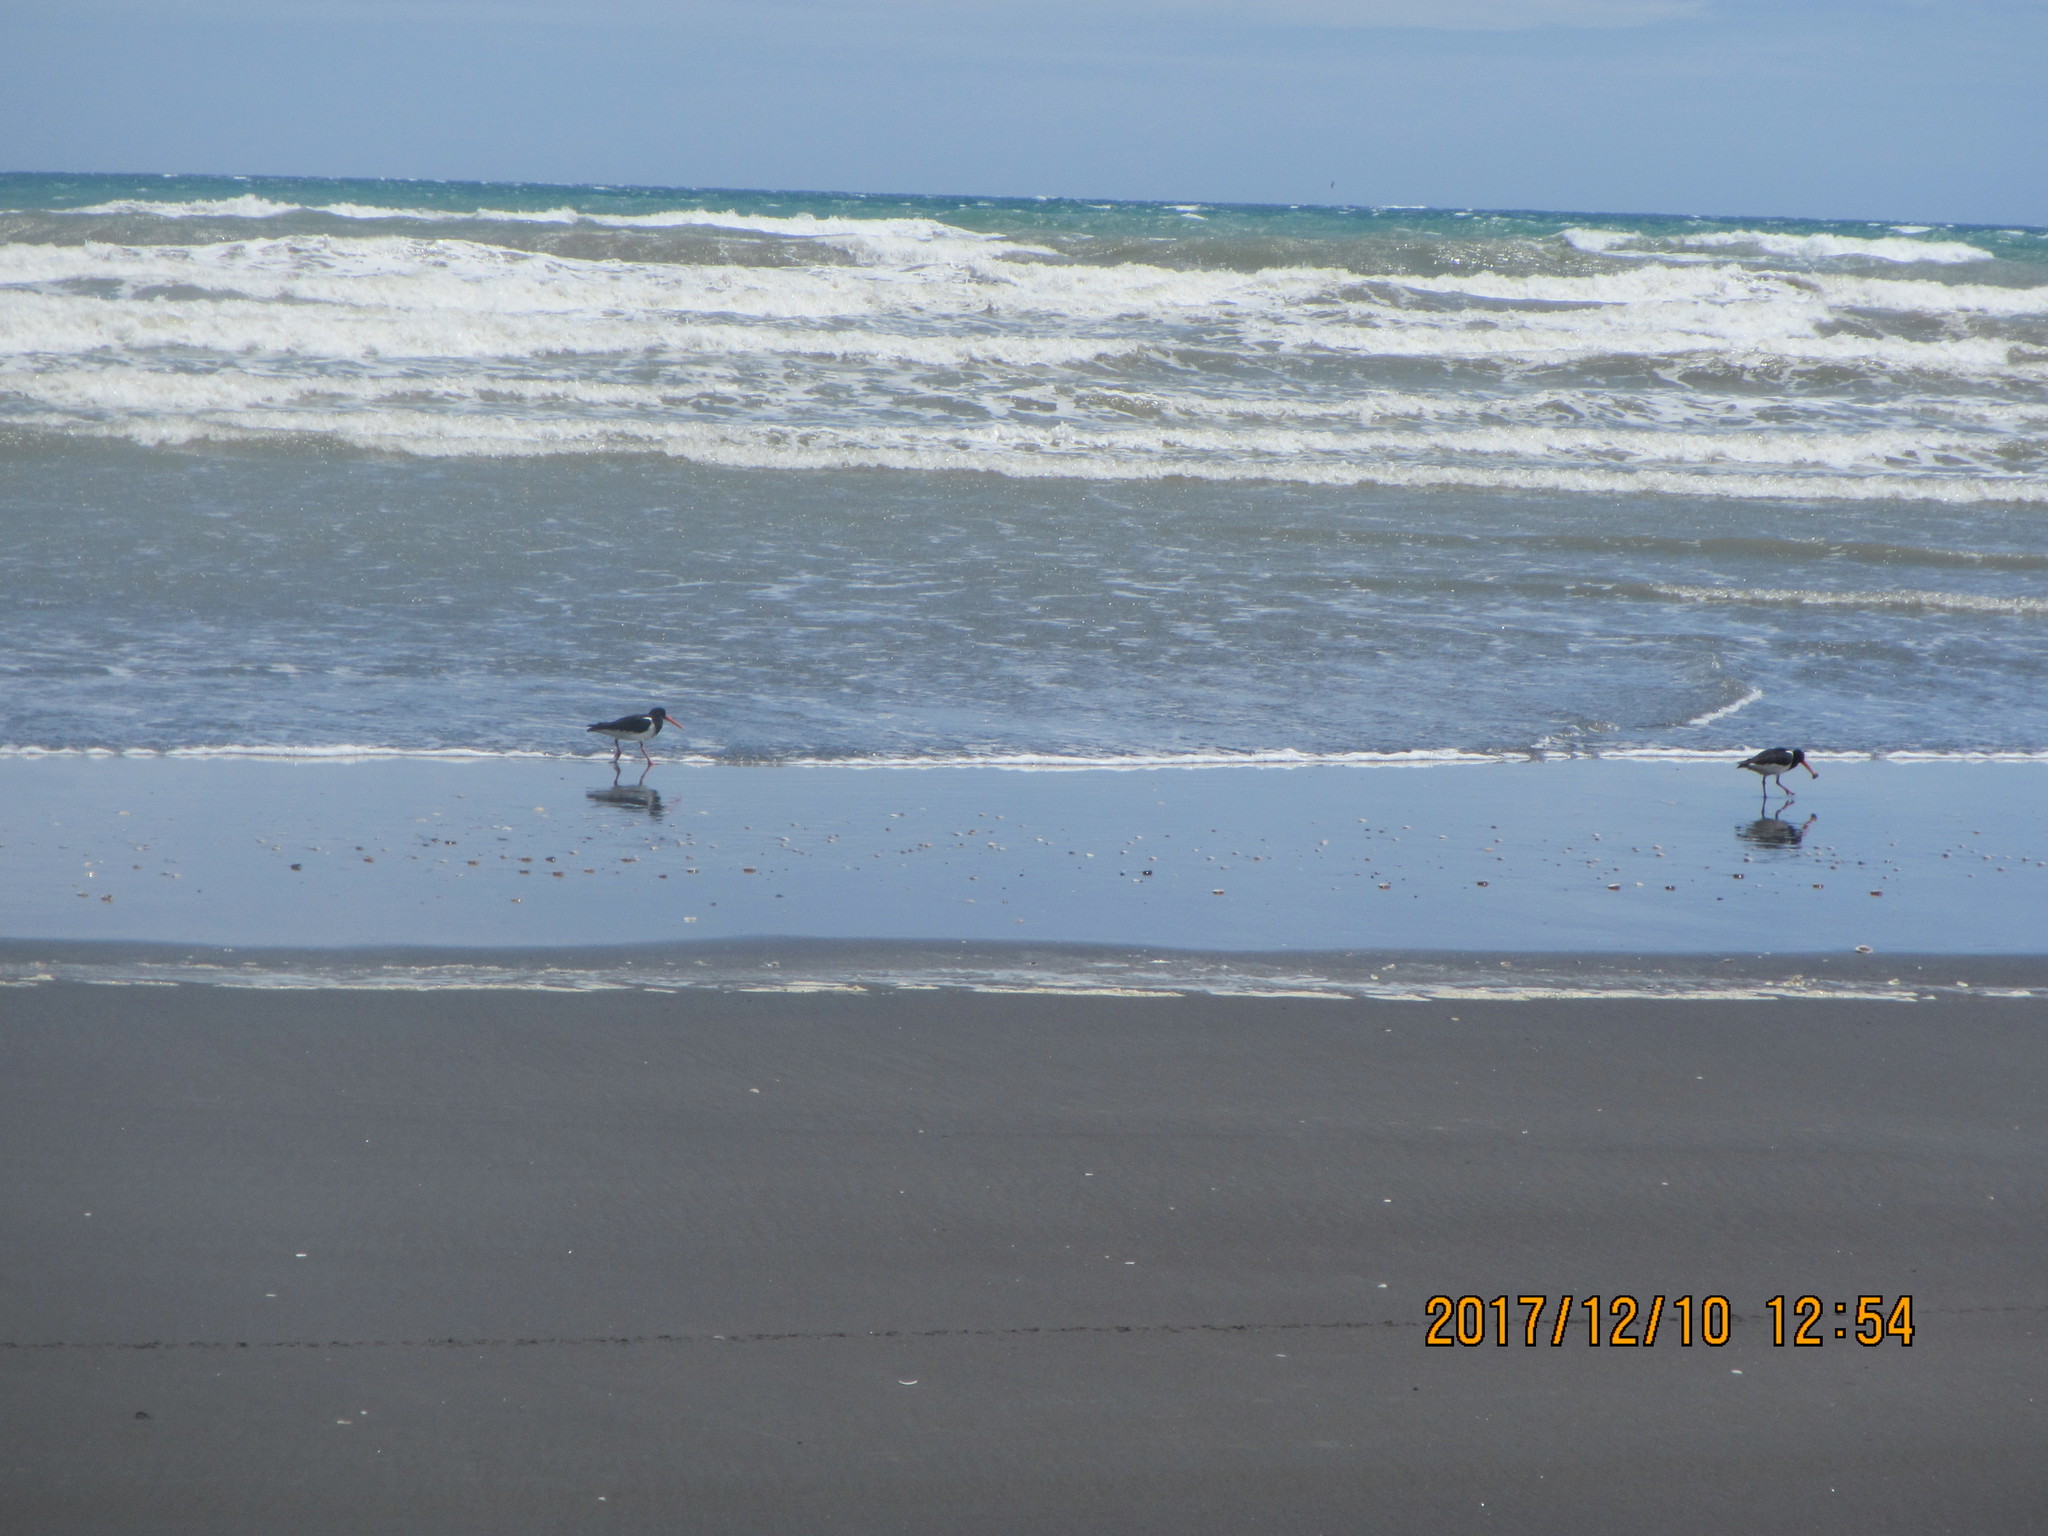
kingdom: Animalia
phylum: Chordata
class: Aves
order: Charadriiformes
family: Haematopodidae
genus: Haematopus
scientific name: Haematopus finschi
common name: South island oystercatcher
